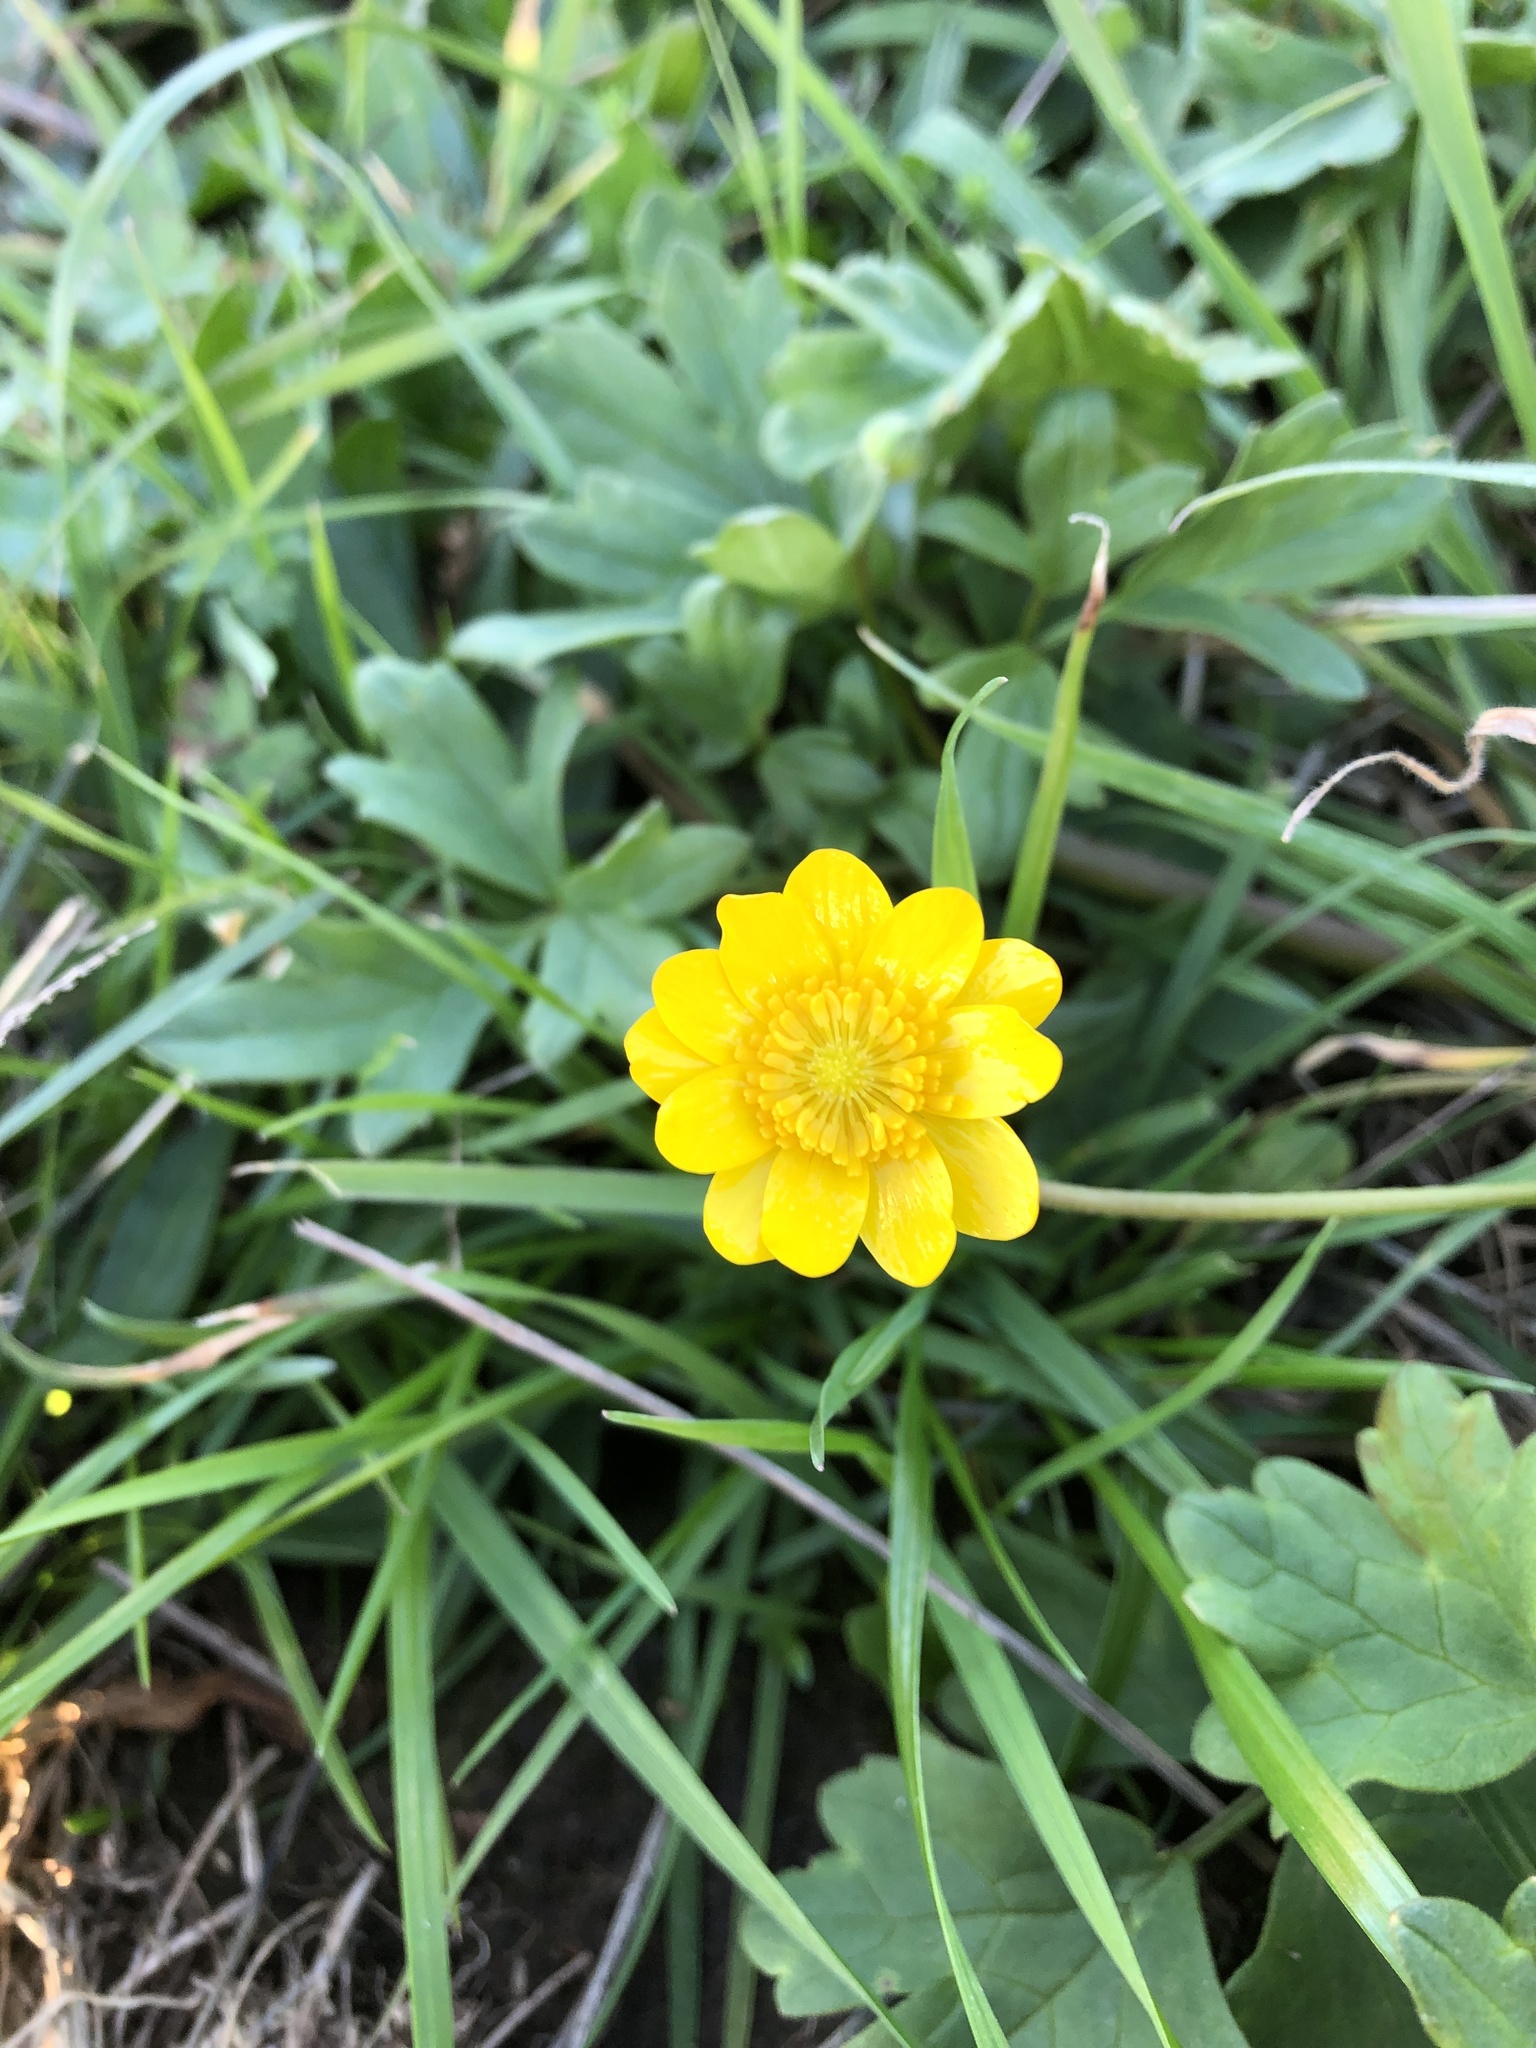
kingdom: Plantae
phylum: Tracheophyta
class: Magnoliopsida
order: Ranunculales
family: Ranunculaceae
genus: Ranunculus
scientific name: Ranunculus californicus
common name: California buttercup
